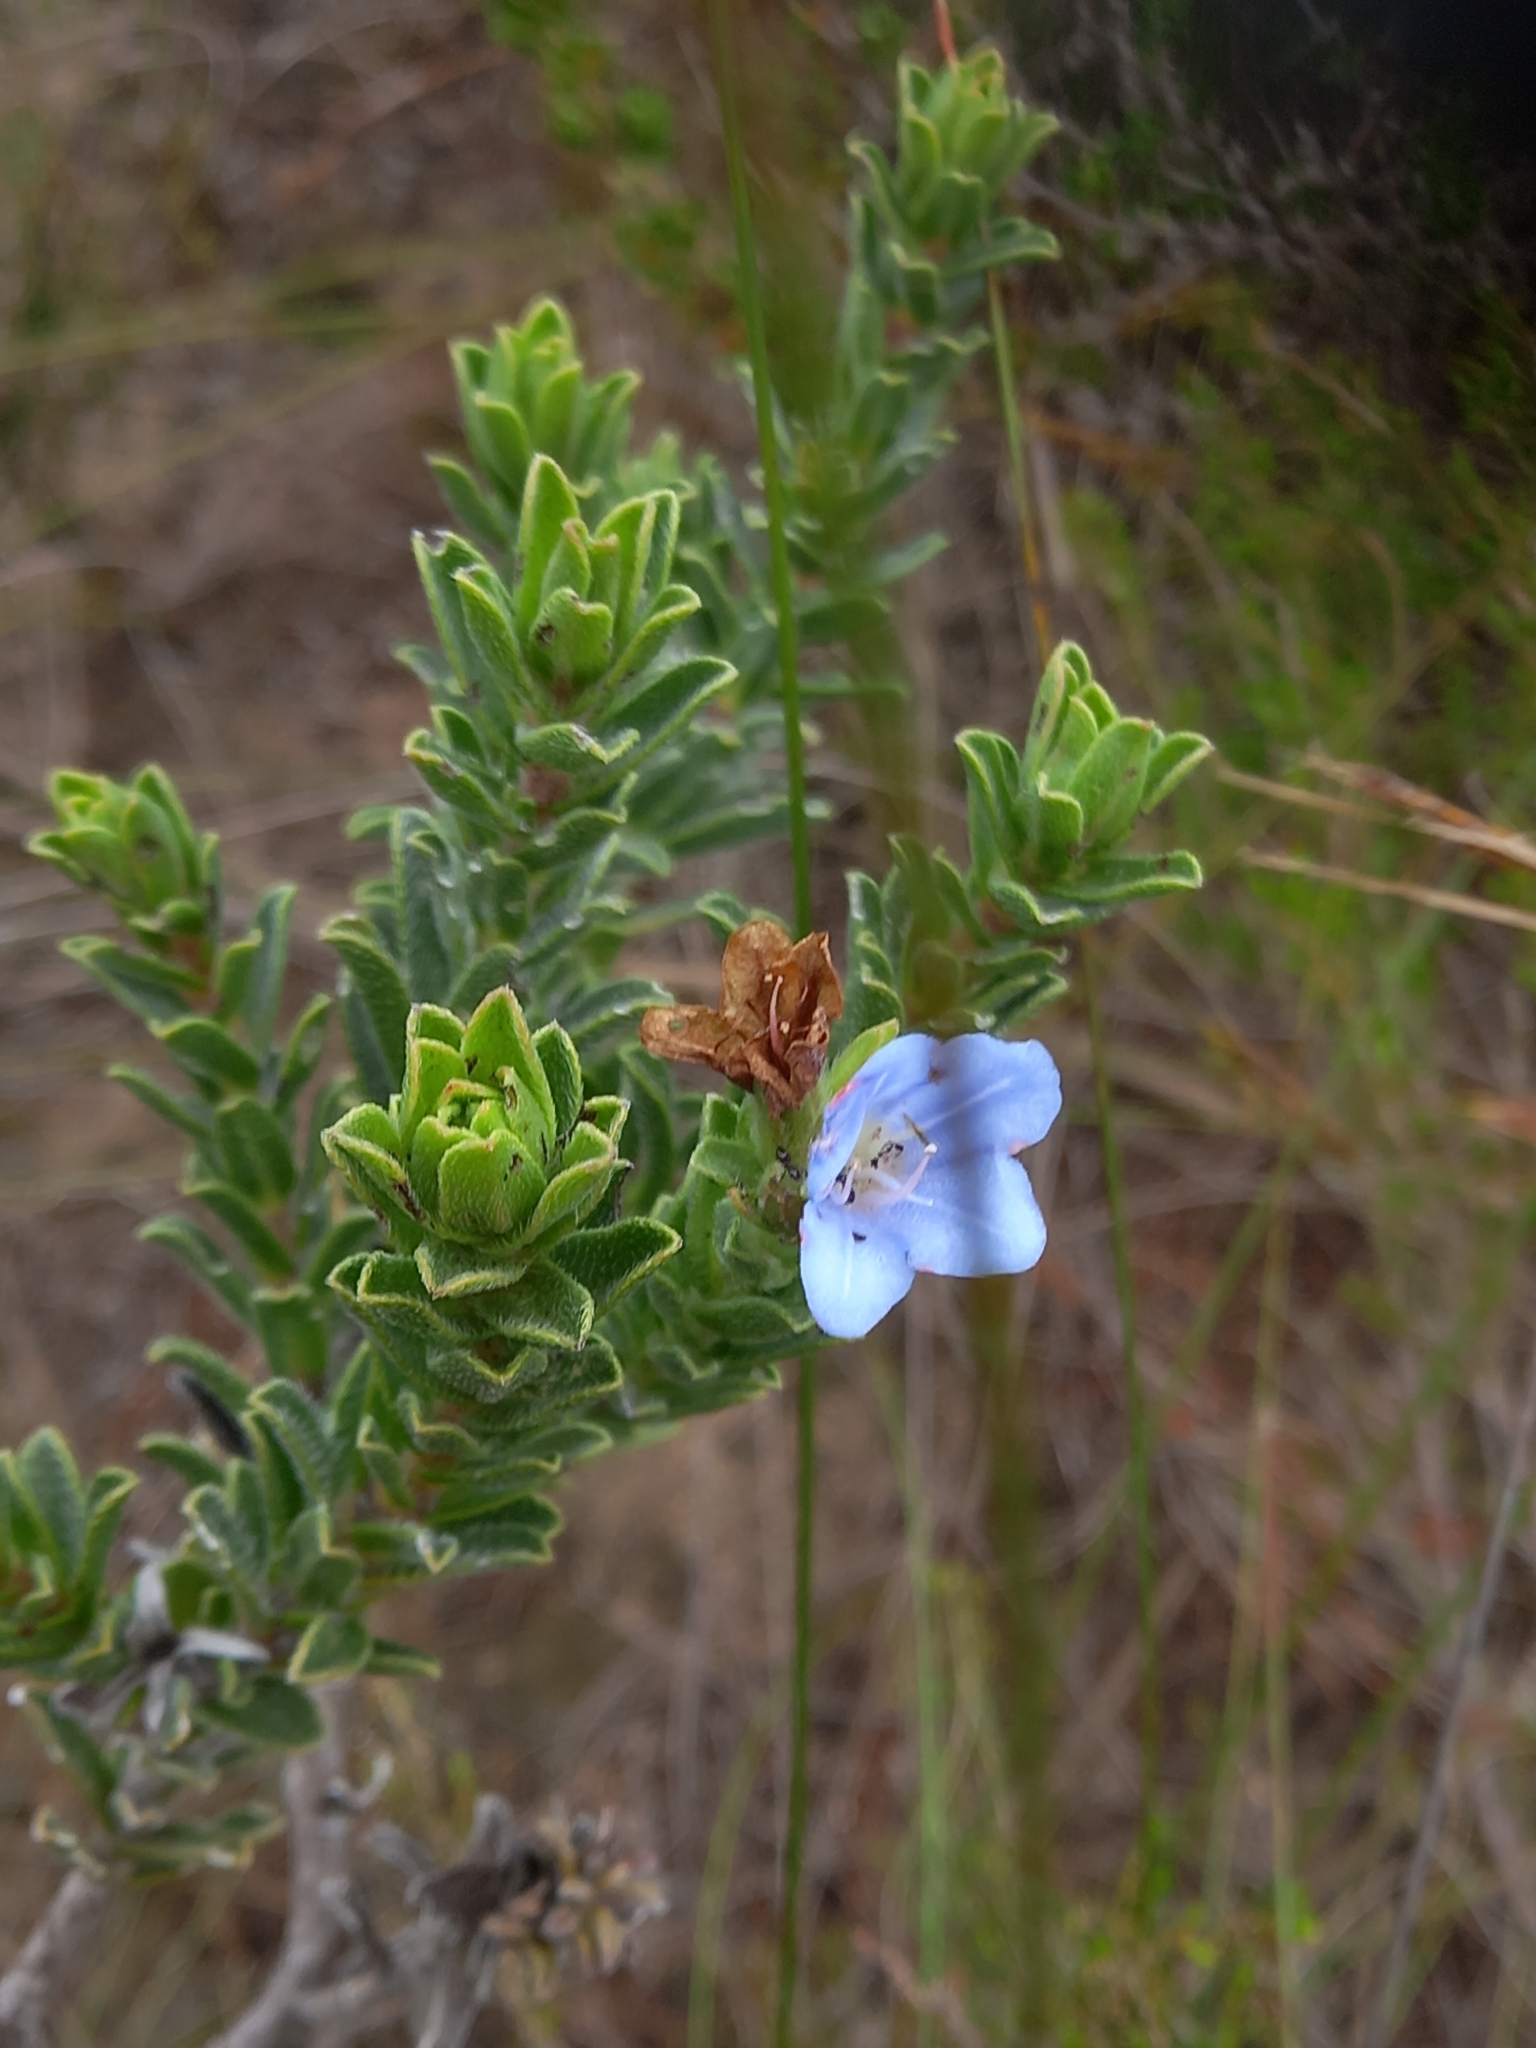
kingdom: Plantae
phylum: Tracheophyta
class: Magnoliopsida
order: Boraginales
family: Boraginaceae
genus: Lobostemon
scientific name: Lobostemon trigonus
